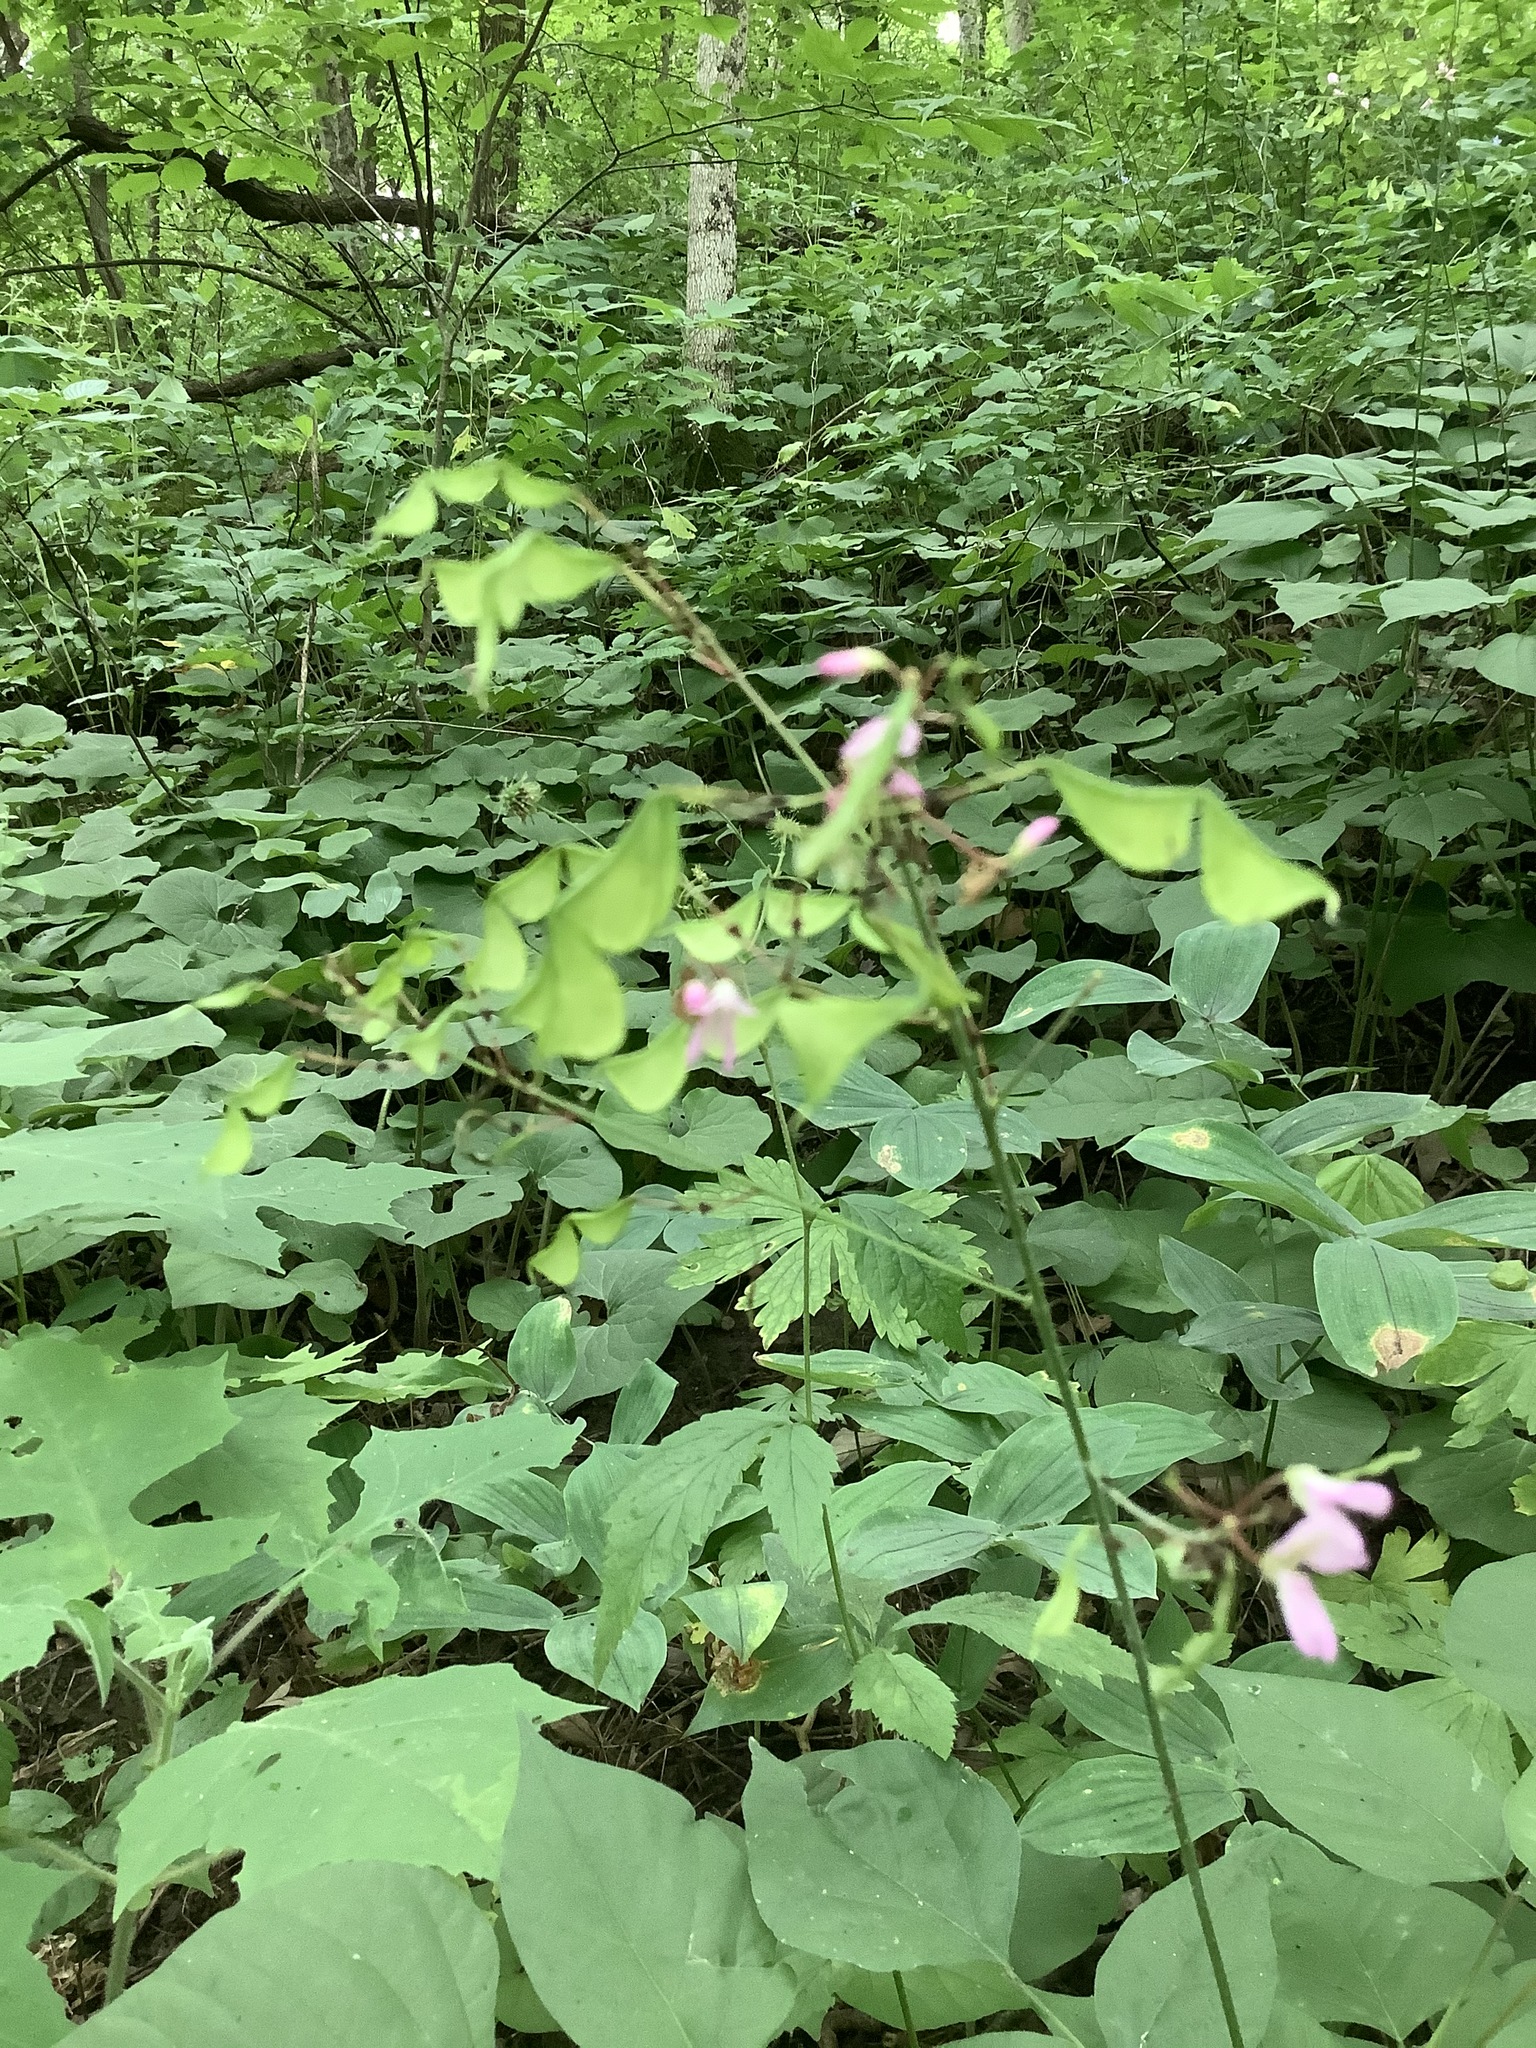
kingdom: Plantae
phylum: Tracheophyta
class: Magnoliopsida
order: Fabales
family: Fabaceae
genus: Hylodesmum
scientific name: Hylodesmum glutinosum
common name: Clustered-leaved tick-trefoil
